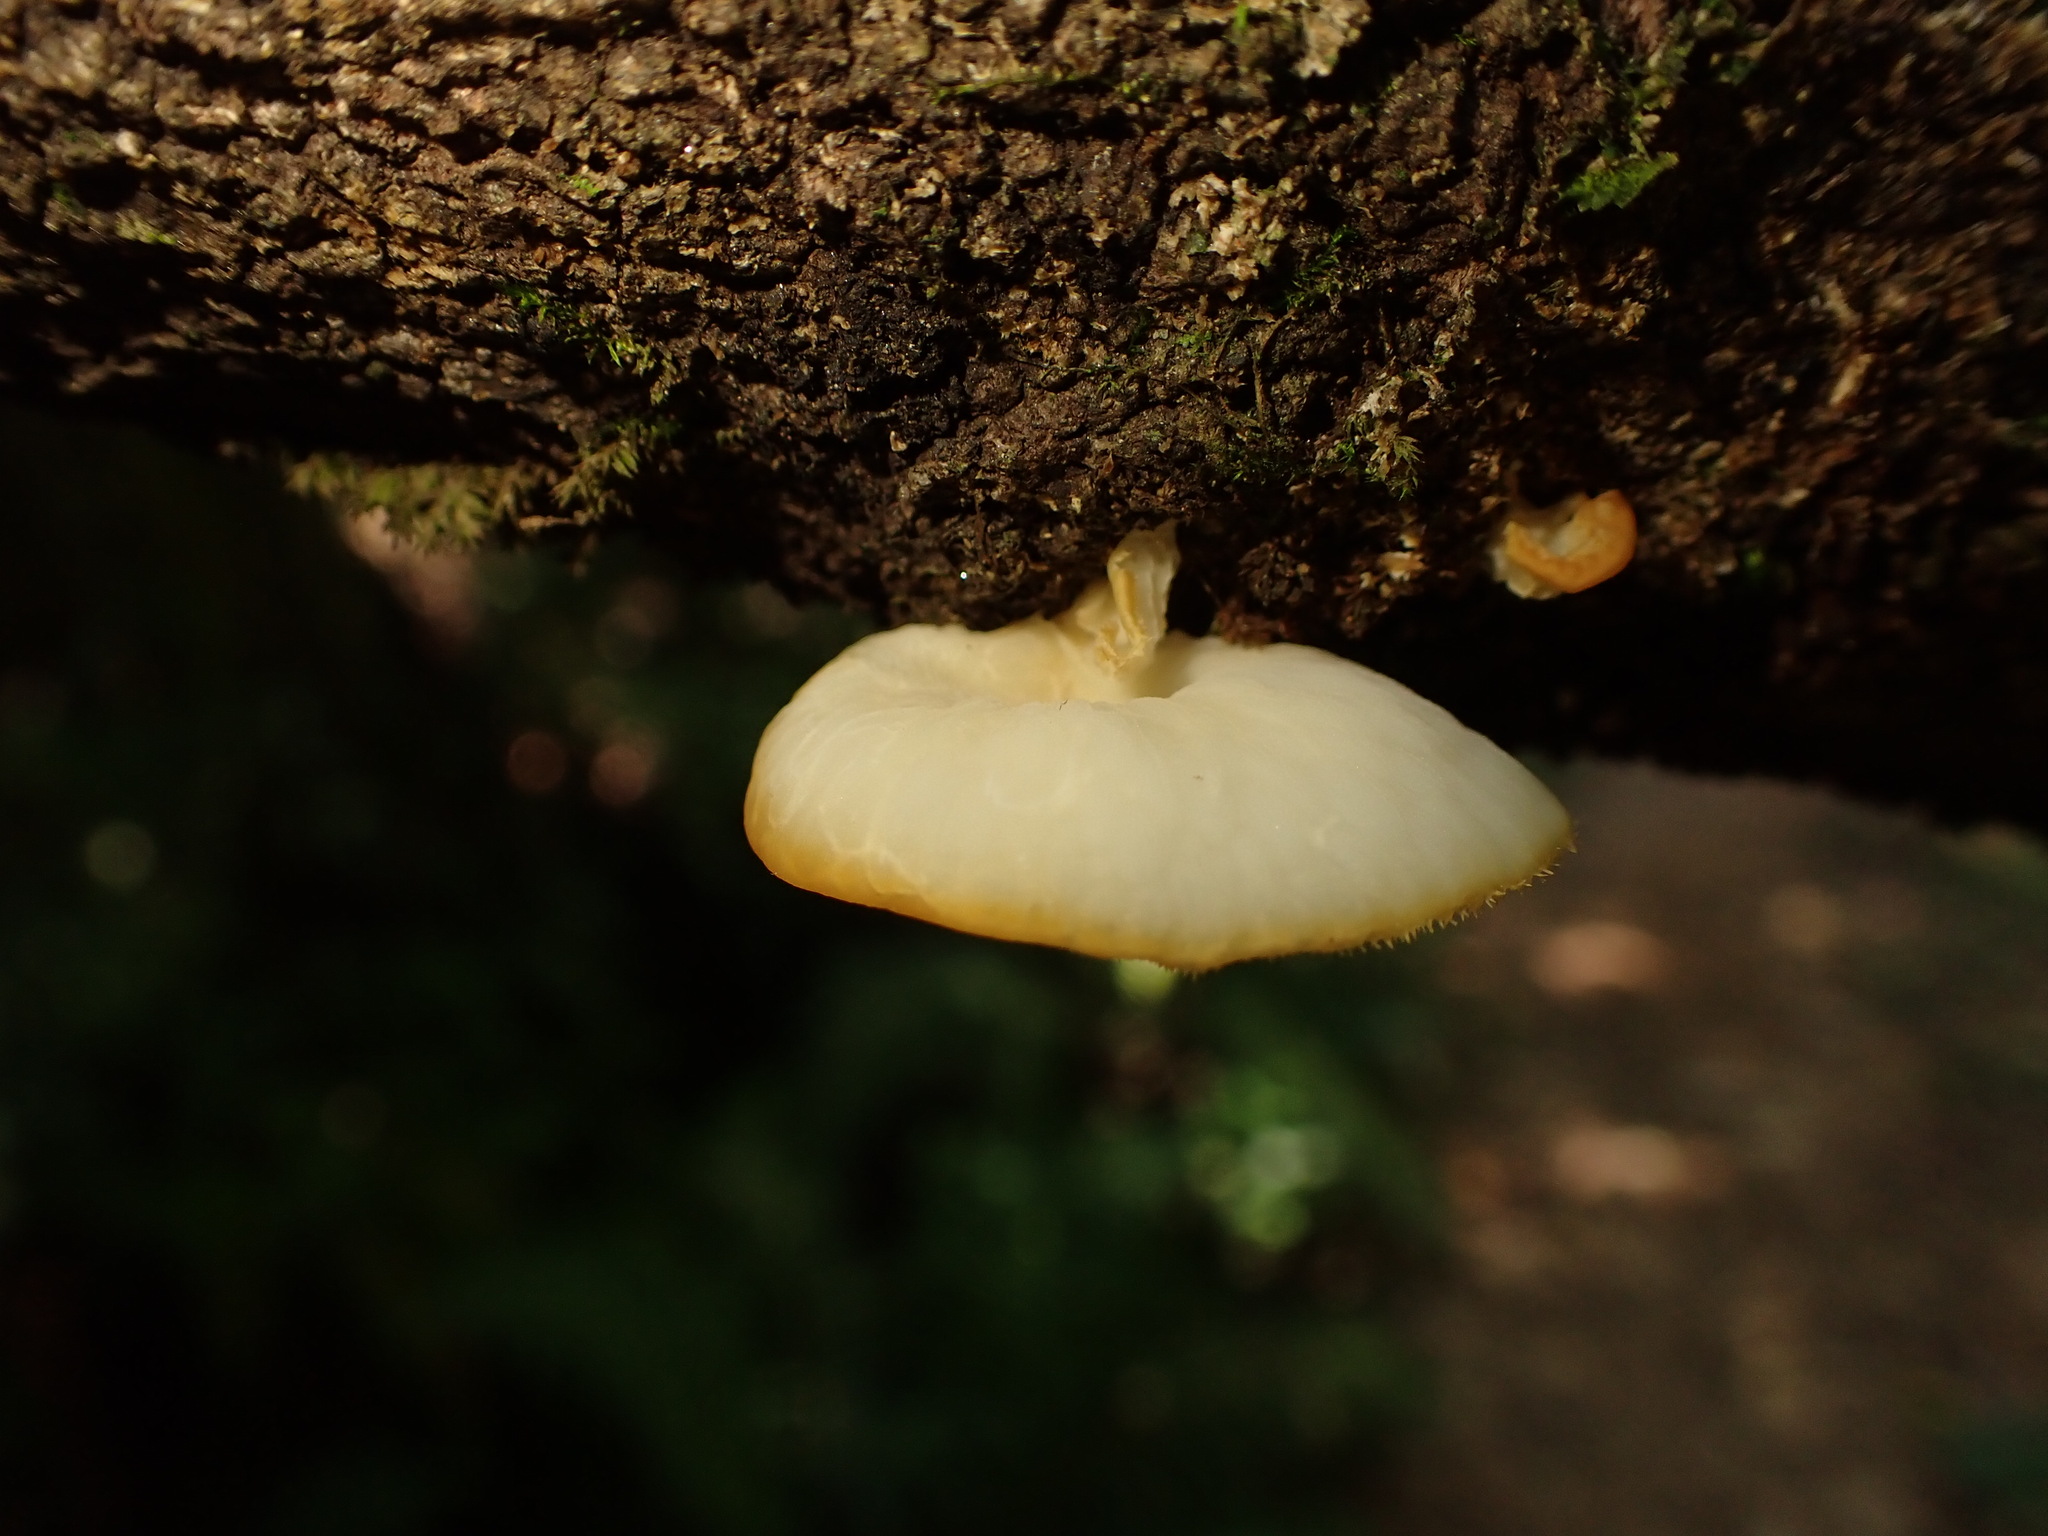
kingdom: Fungi
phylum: Basidiomycota
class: Agaricomycetes
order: Polyporales
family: Polyporaceae
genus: Favolus
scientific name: Favolus tenuiculus
